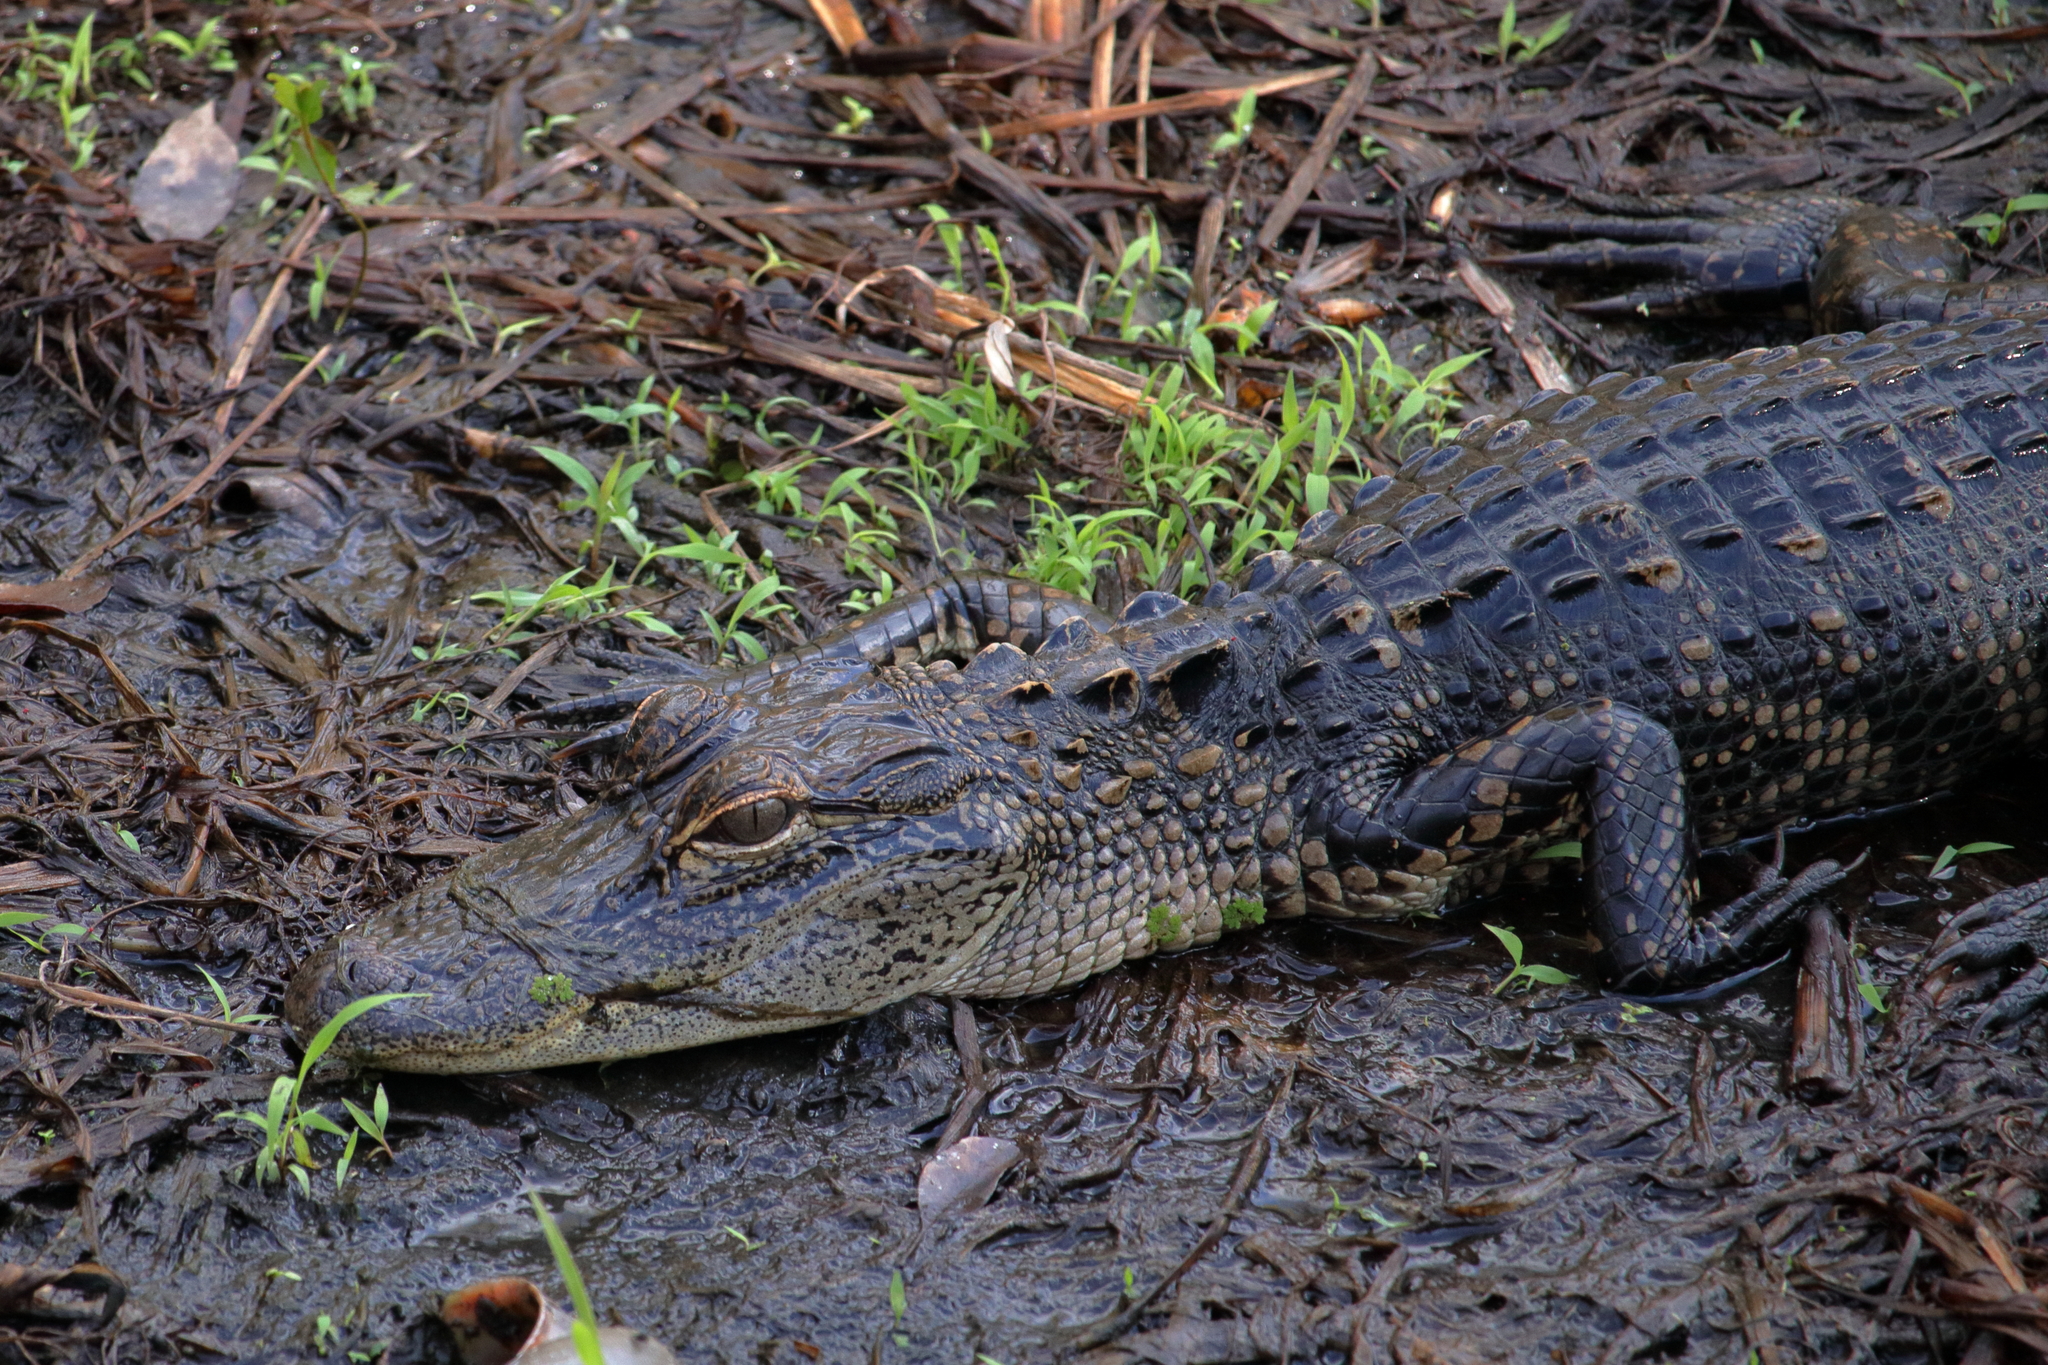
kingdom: Animalia
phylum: Chordata
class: Crocodylia
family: Alligatoridae
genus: Alligator
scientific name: Alligator mississippiensis
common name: American alligator
